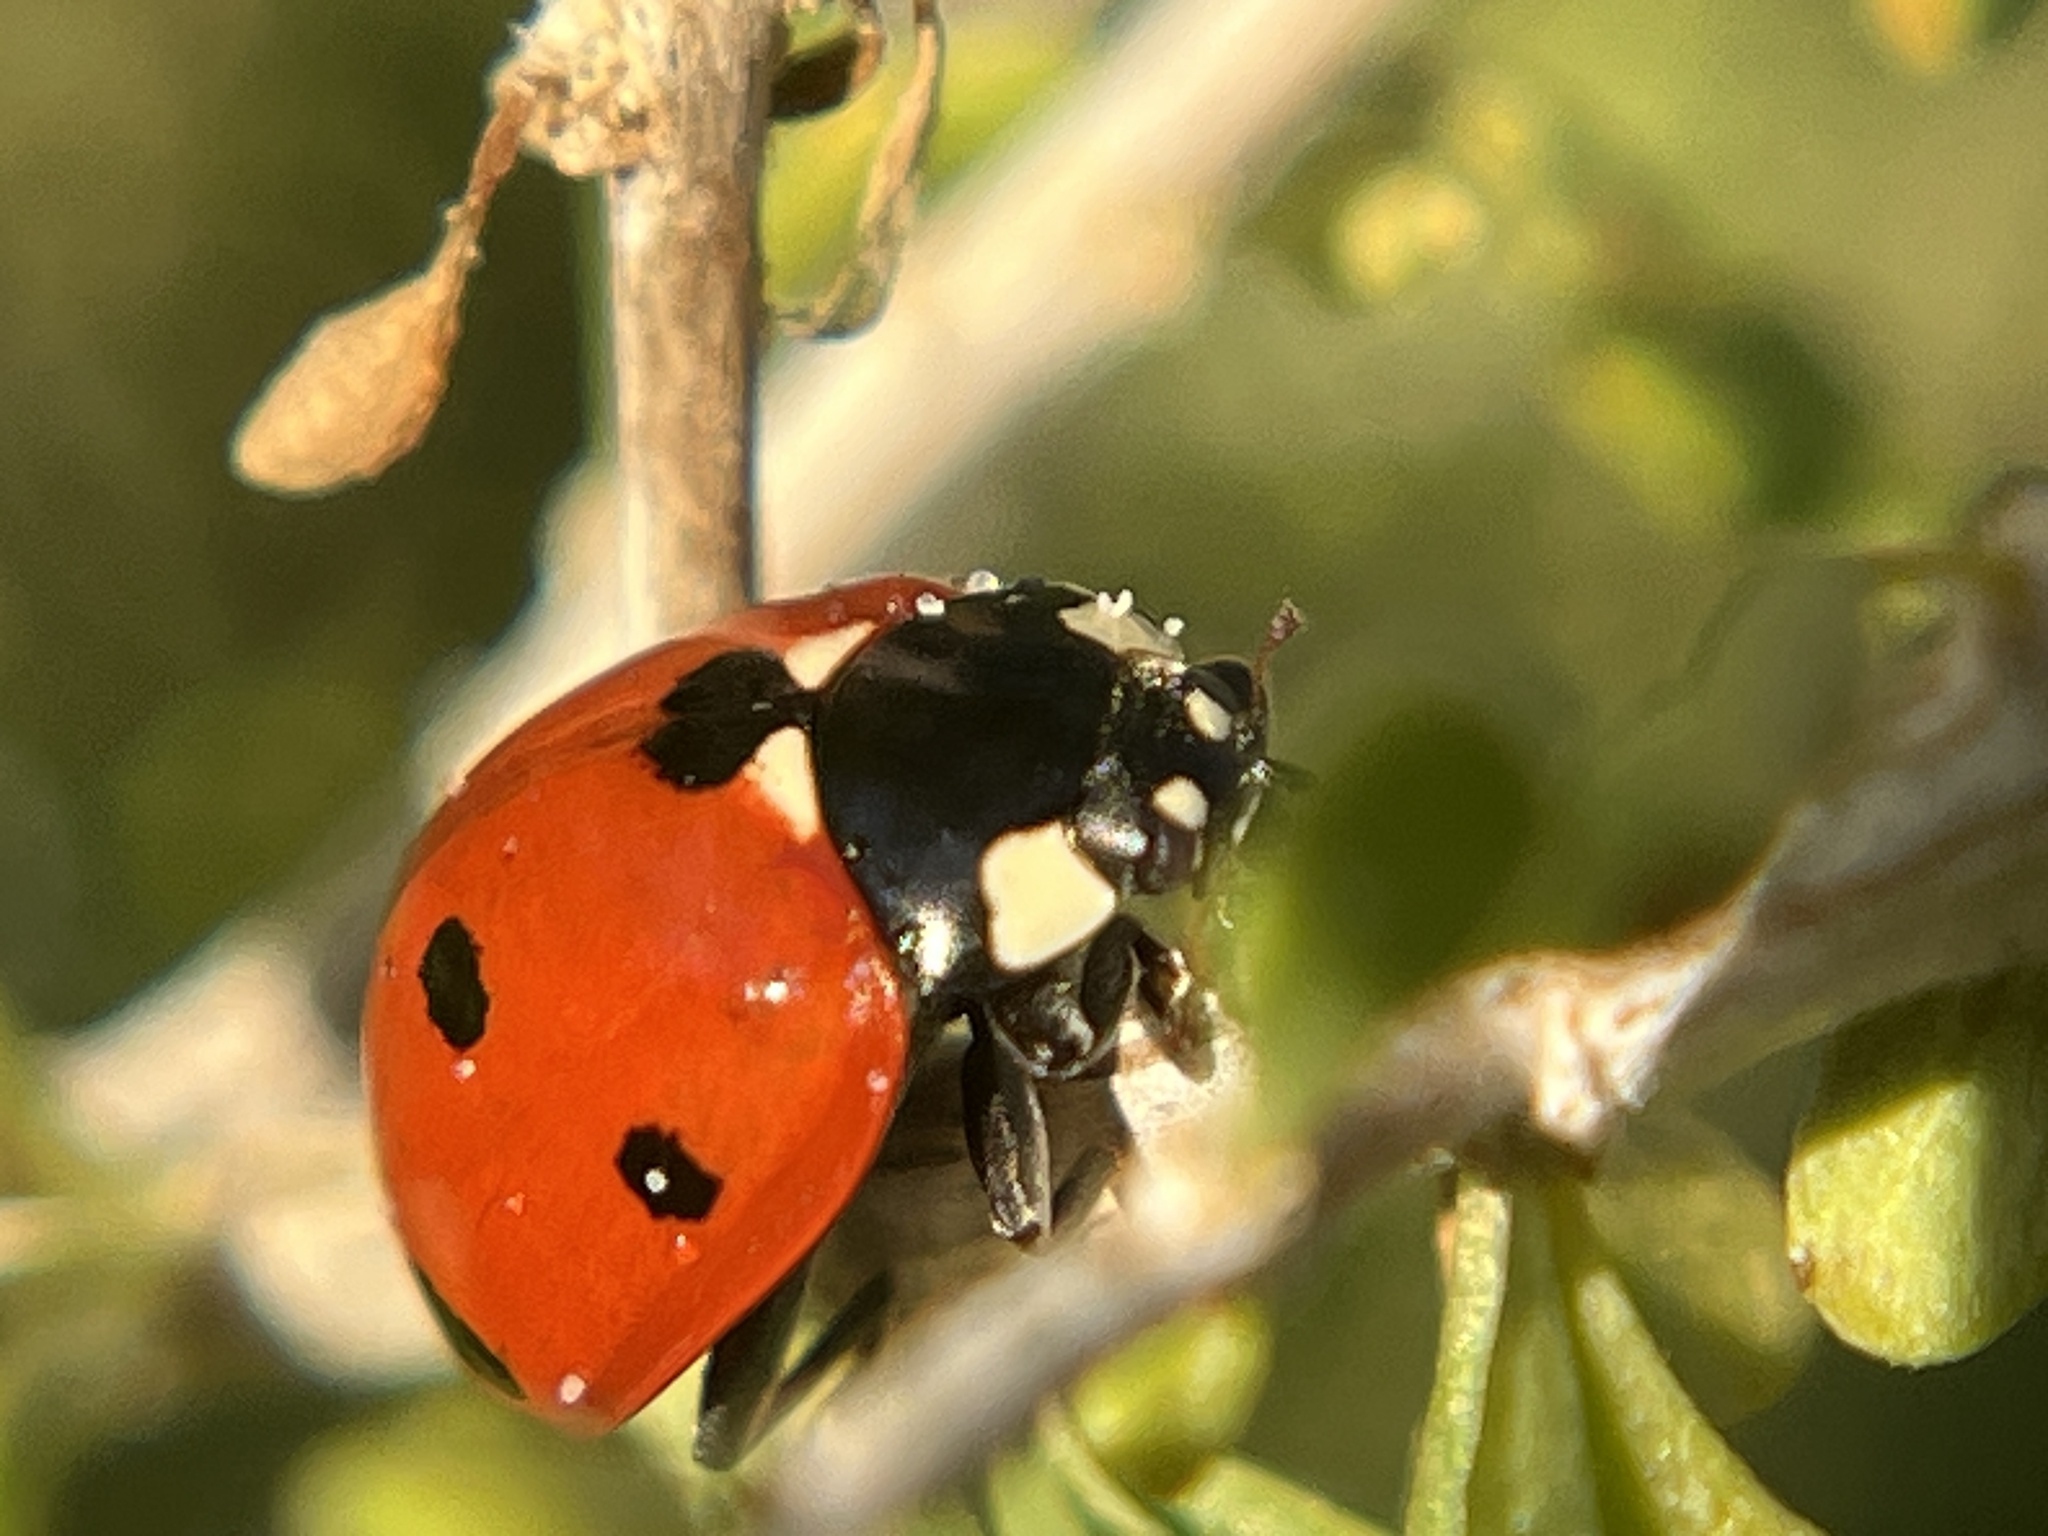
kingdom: Animalia
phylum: Arthropoda
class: Insecta
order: Coleoptera
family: Coccinellidae
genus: Coccinella
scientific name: Coccinella septempunctata
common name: Sevenspotted lady beetle
